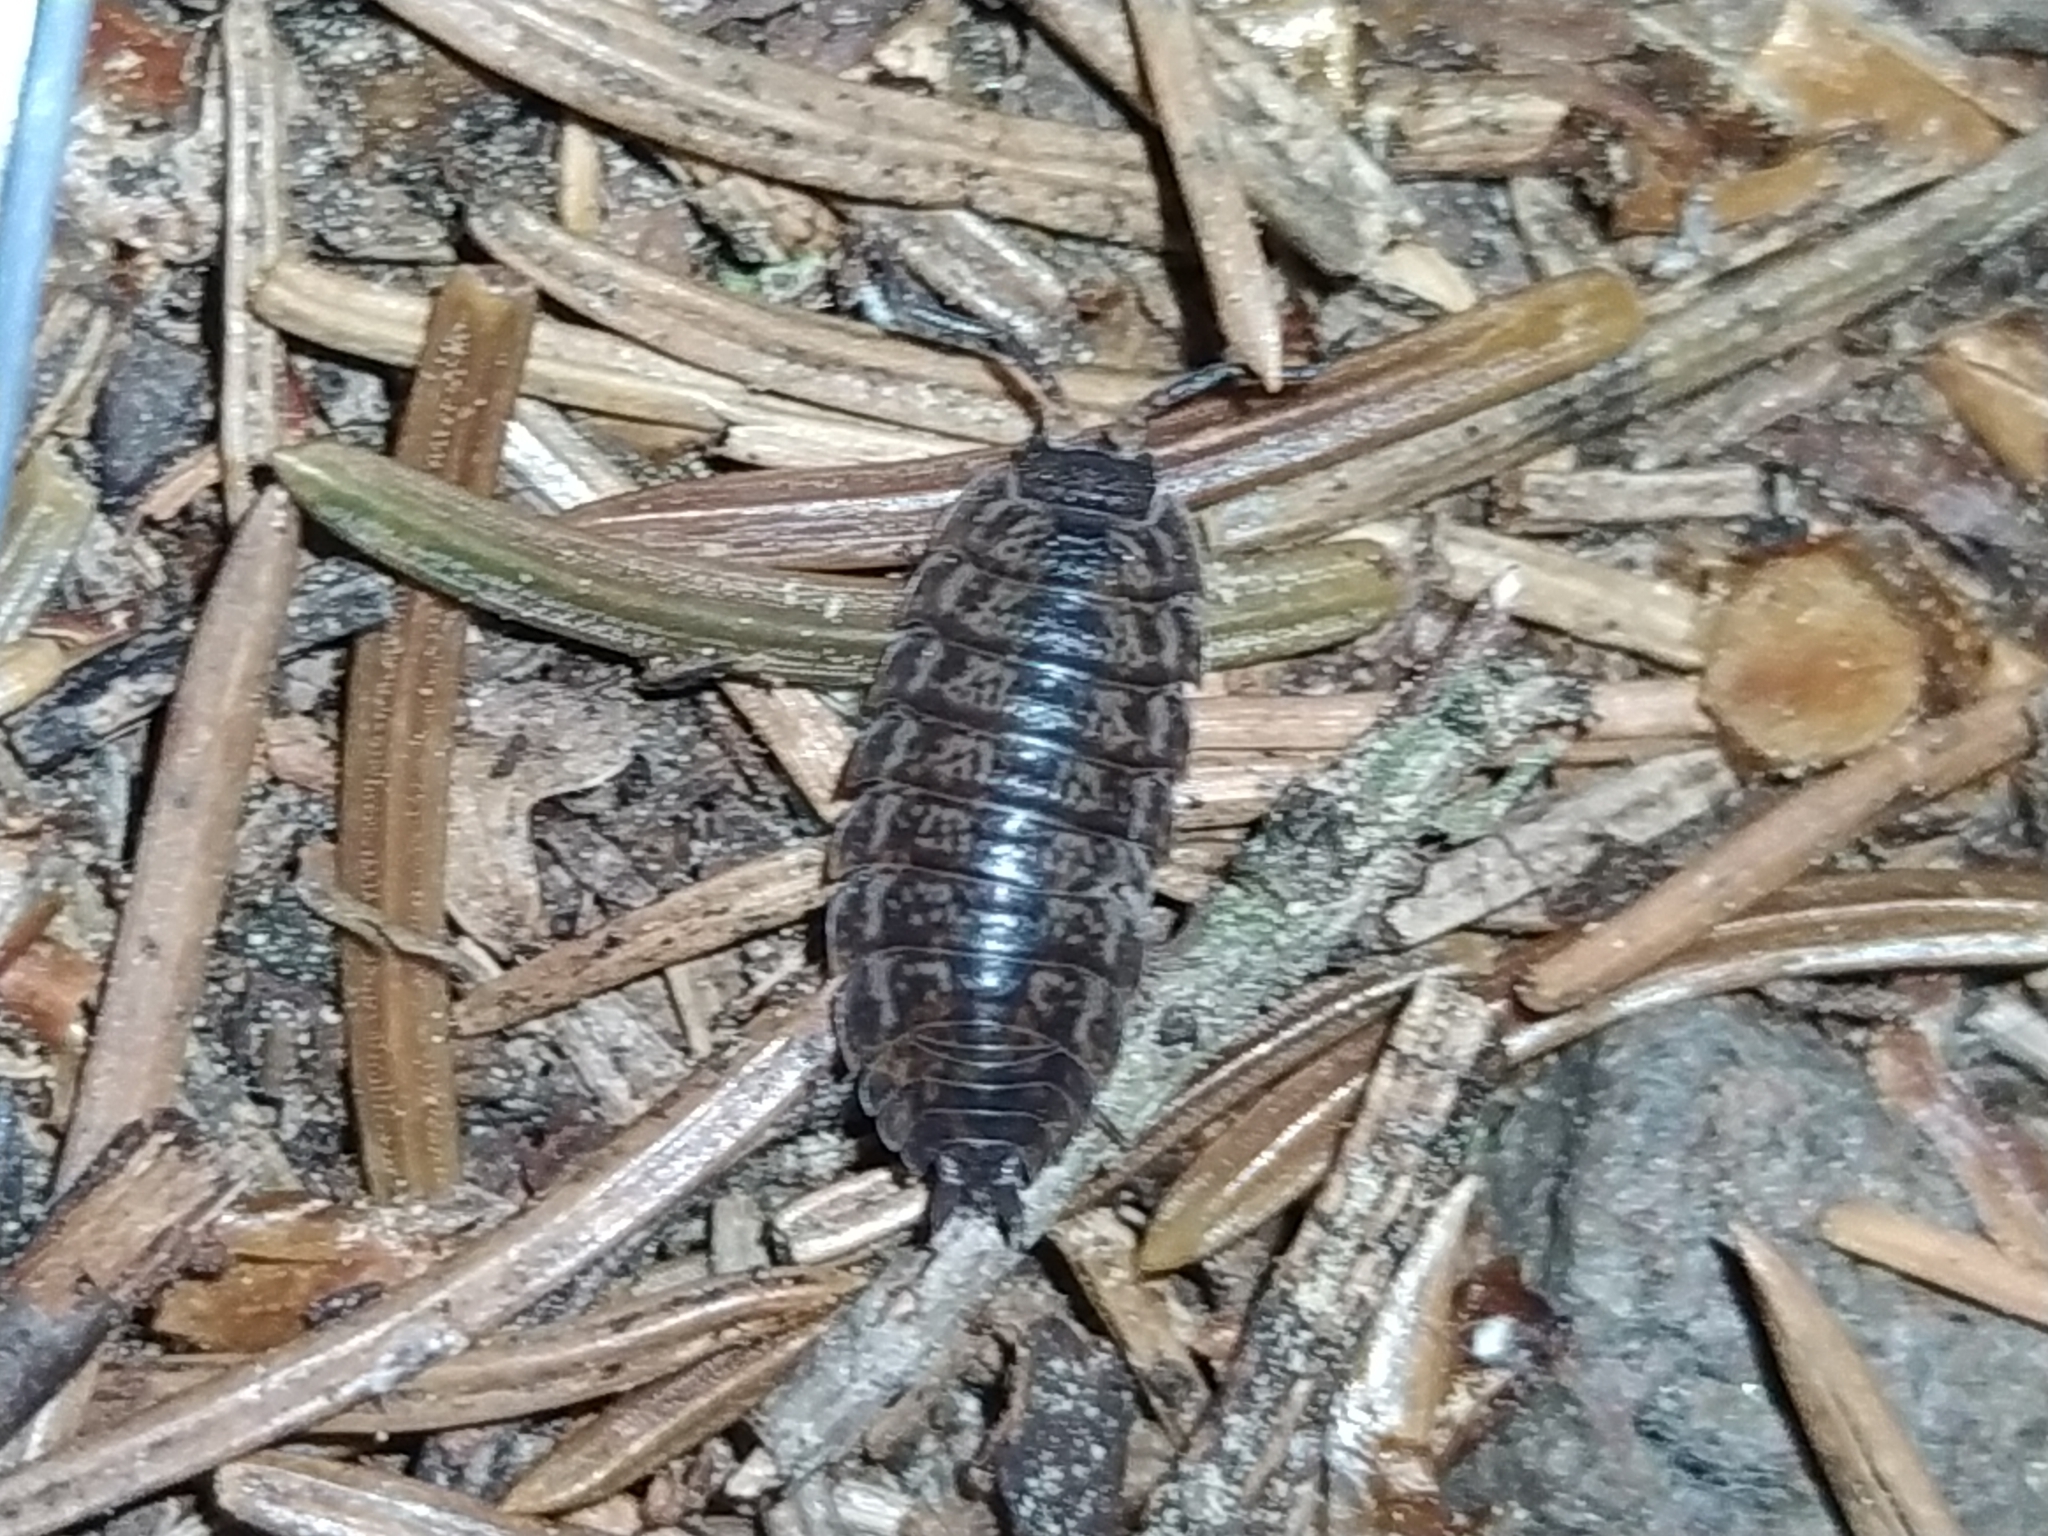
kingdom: Animalia
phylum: Arthropoda
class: Malacostraca
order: Isopoda
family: Trachelipodidae
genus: Trachelipus
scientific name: Trachelipus rathkii
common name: Isopod
